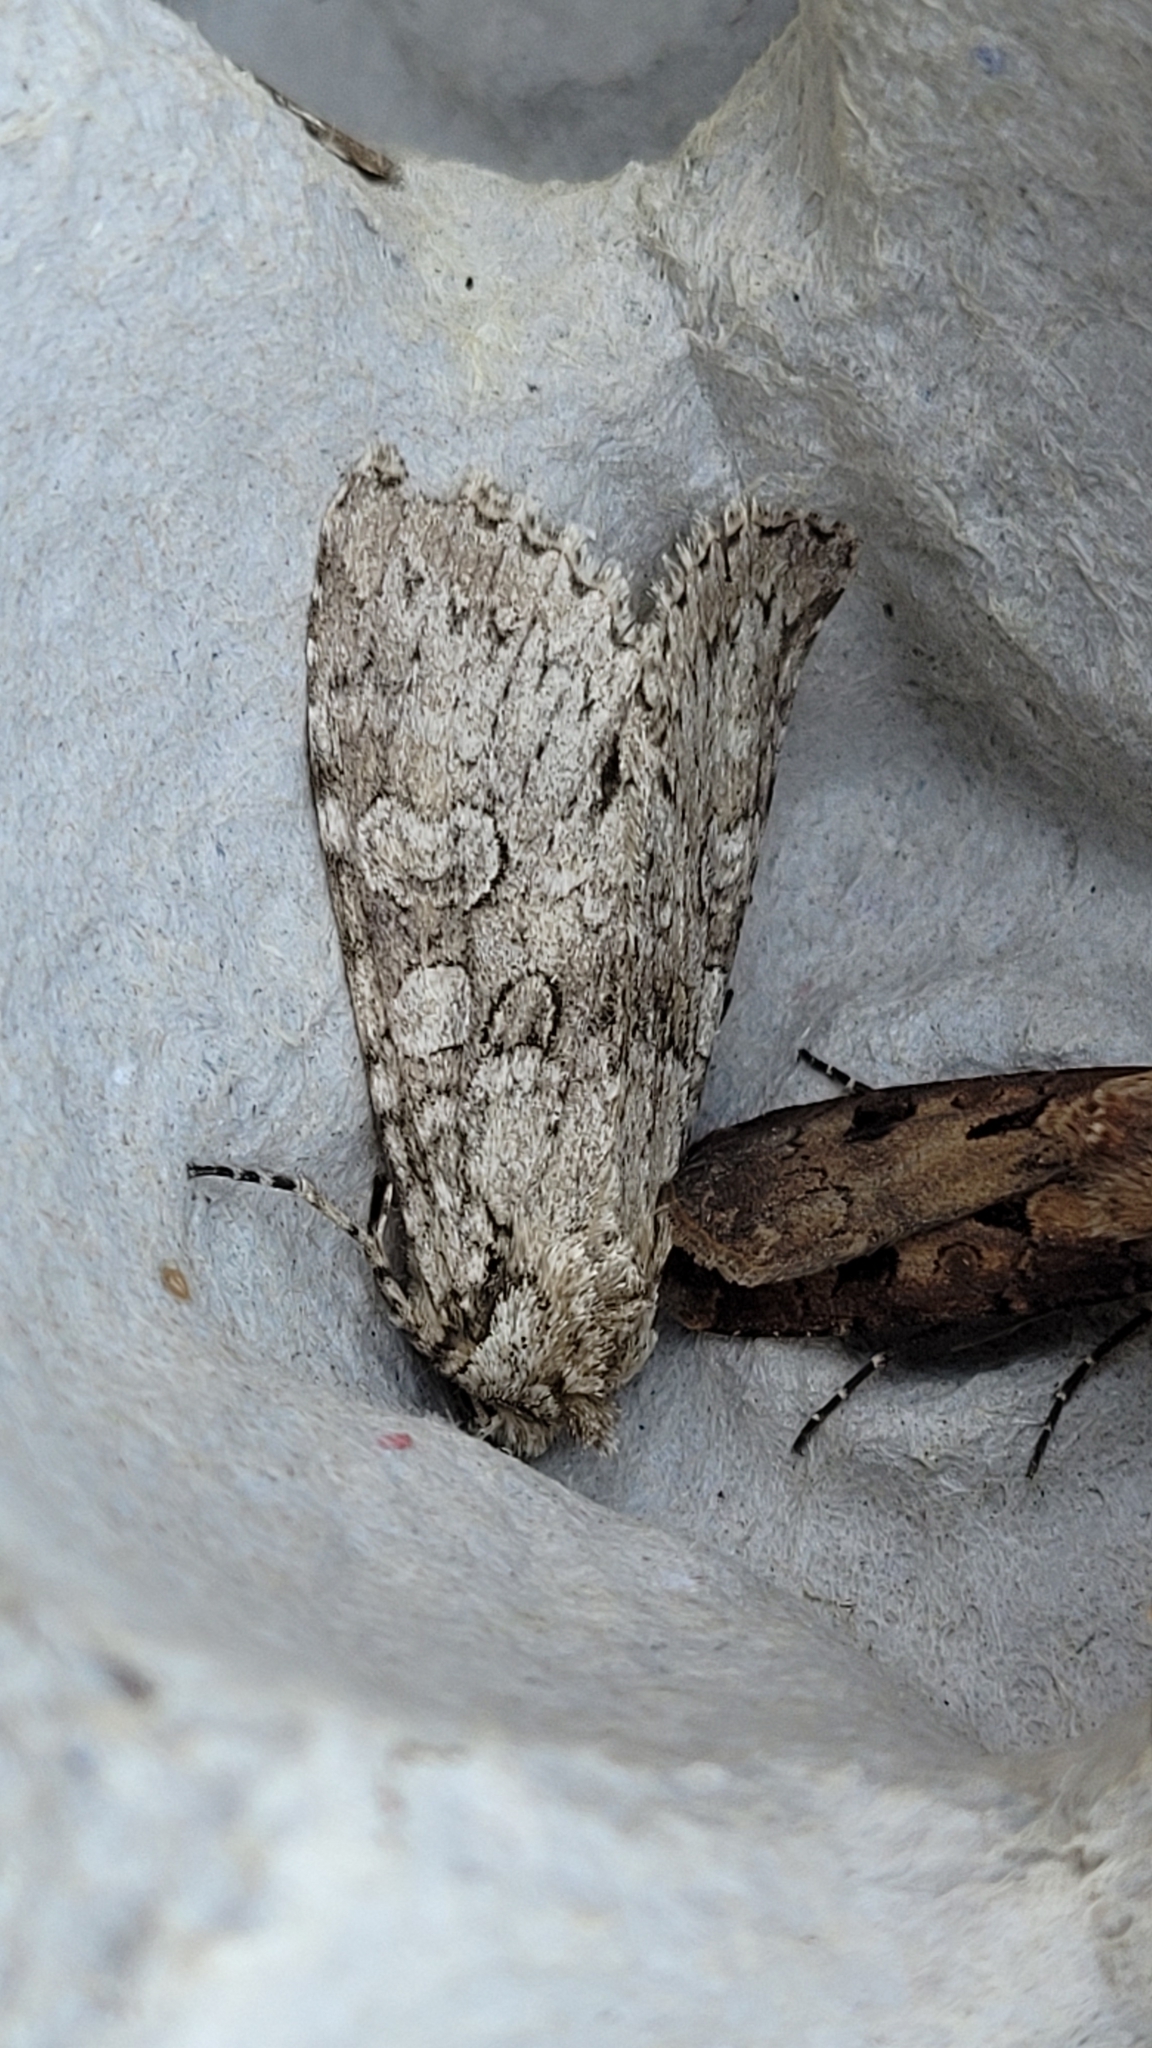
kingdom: Animalia
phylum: Arthropoda
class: Insecta
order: Lepidoptera
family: Noctuidae
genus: Polia
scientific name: Polia nebulosa
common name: Grey arches
